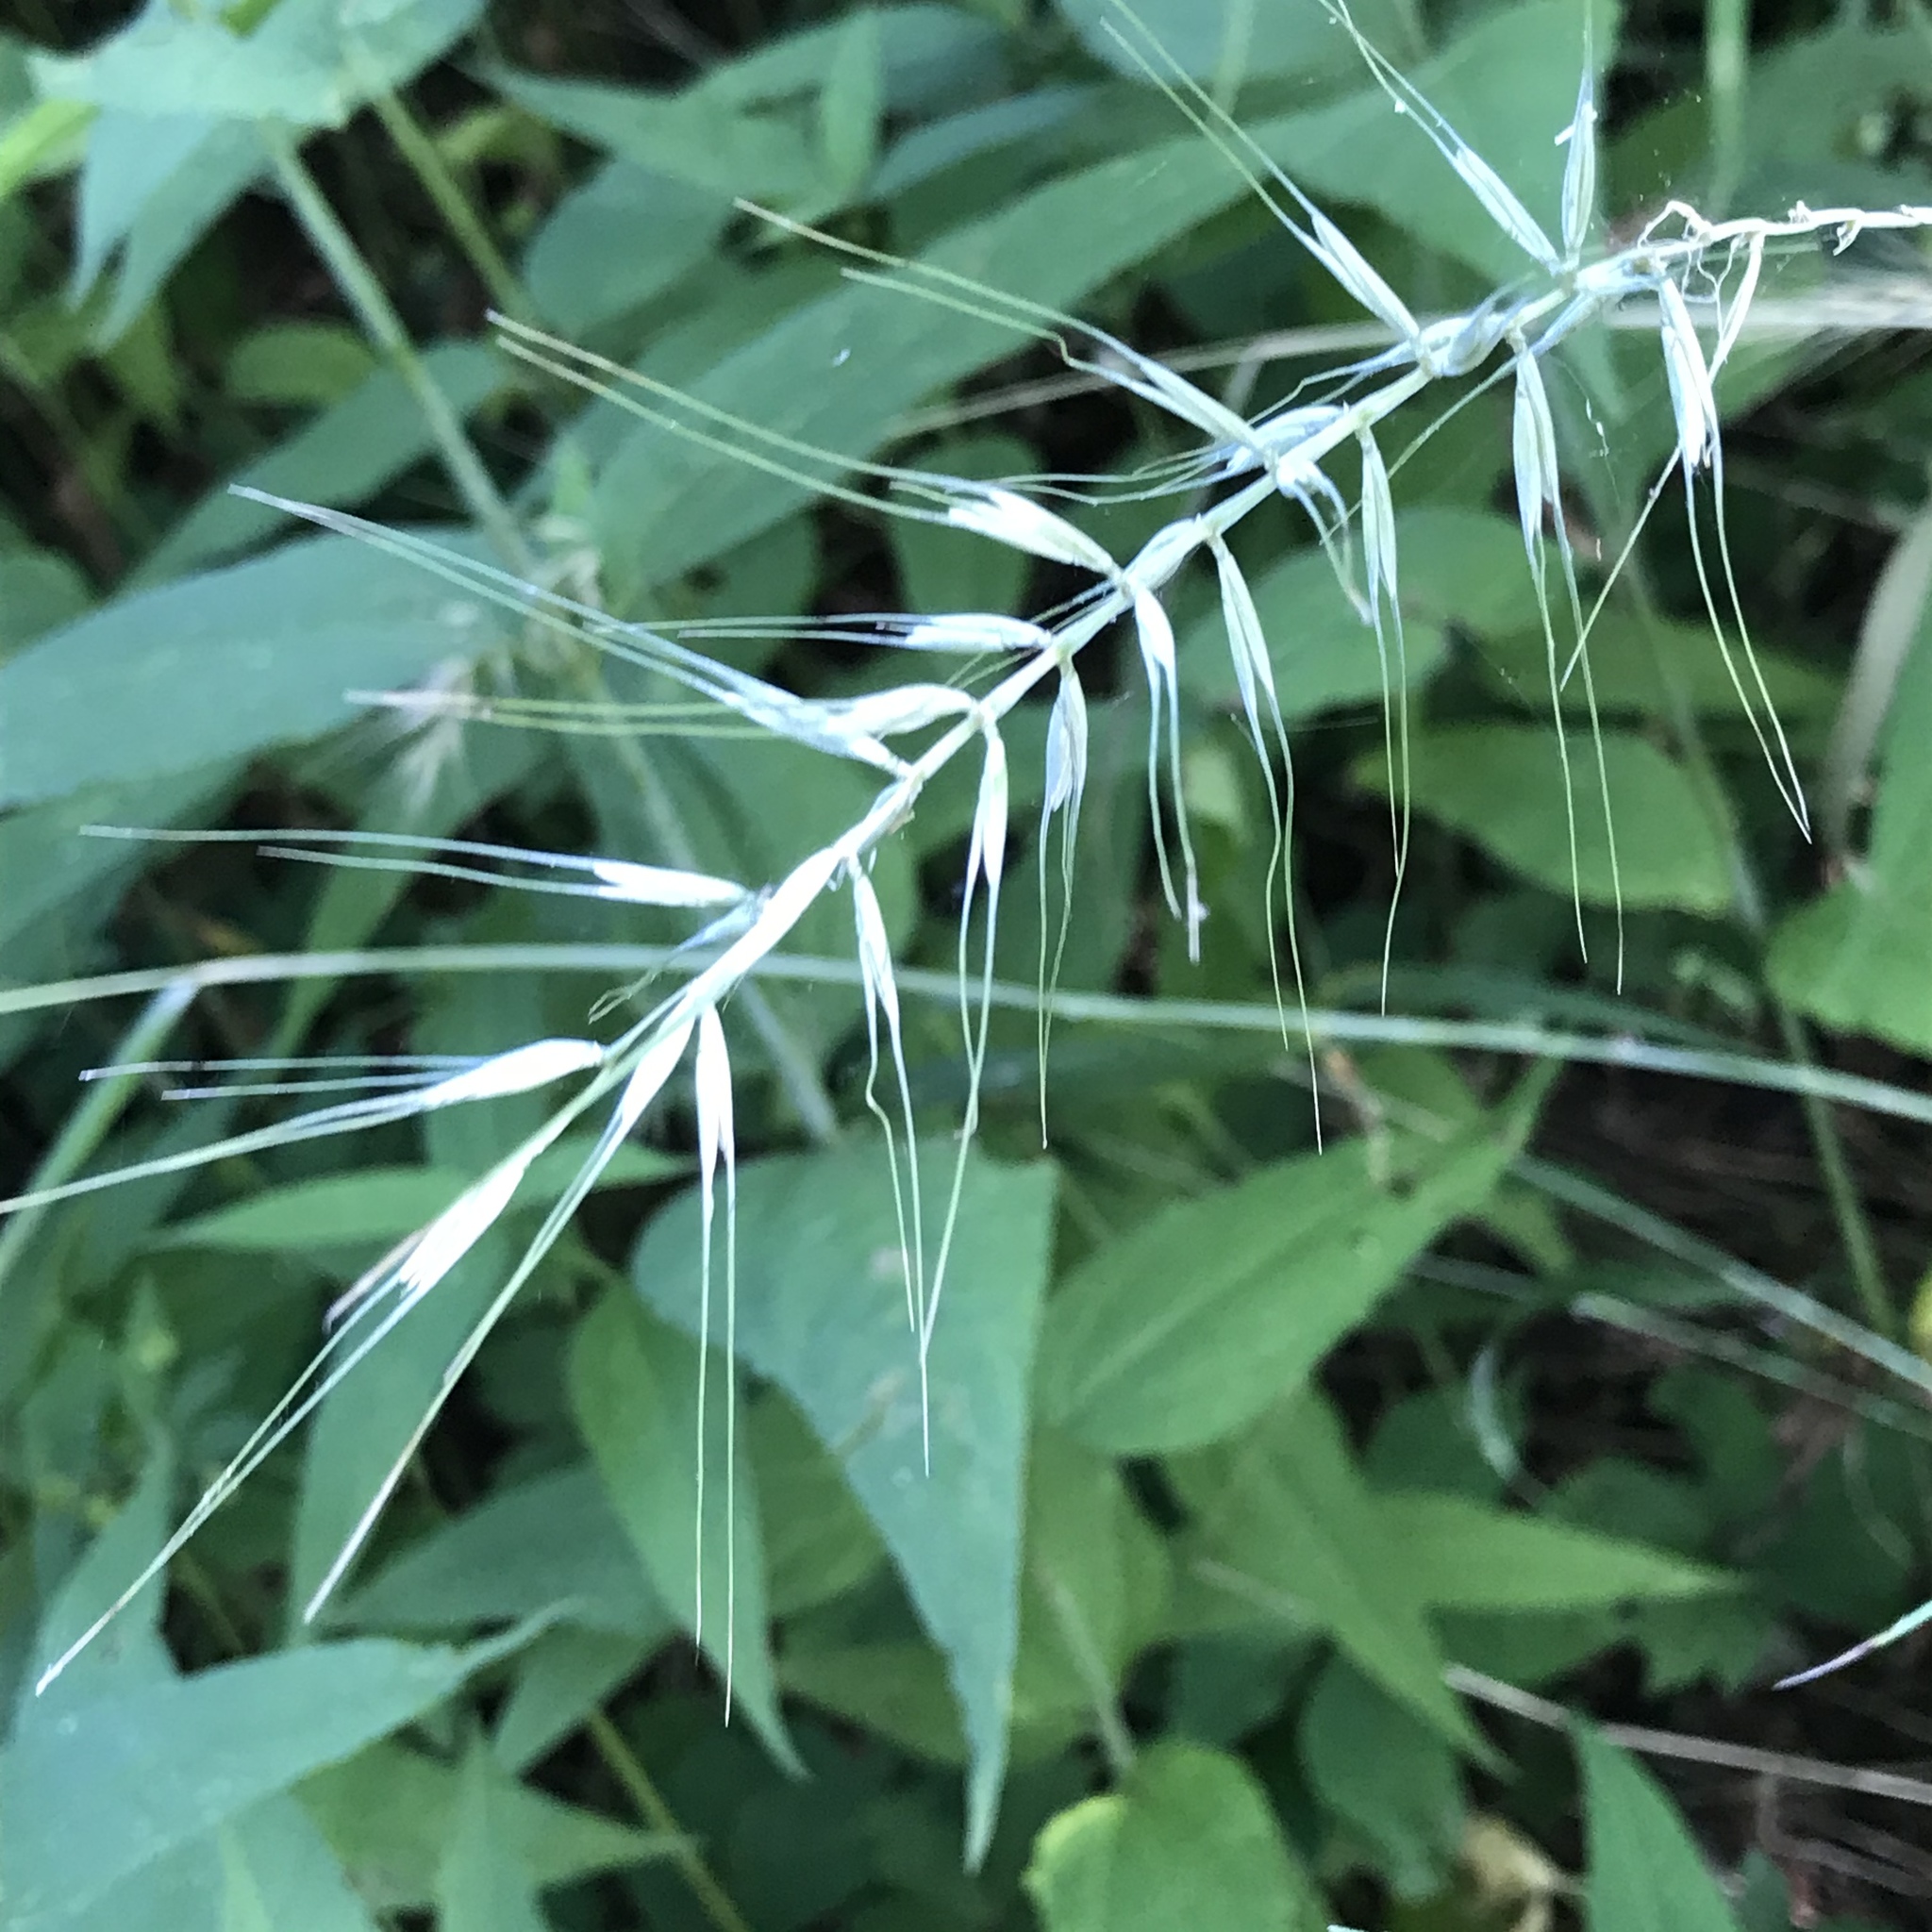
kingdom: Plantae
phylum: Tracheophyta
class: Liliopsida
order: Poales
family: Poaceae
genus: Elymus
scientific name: Elymus hystrix
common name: Bottlebrush grass
